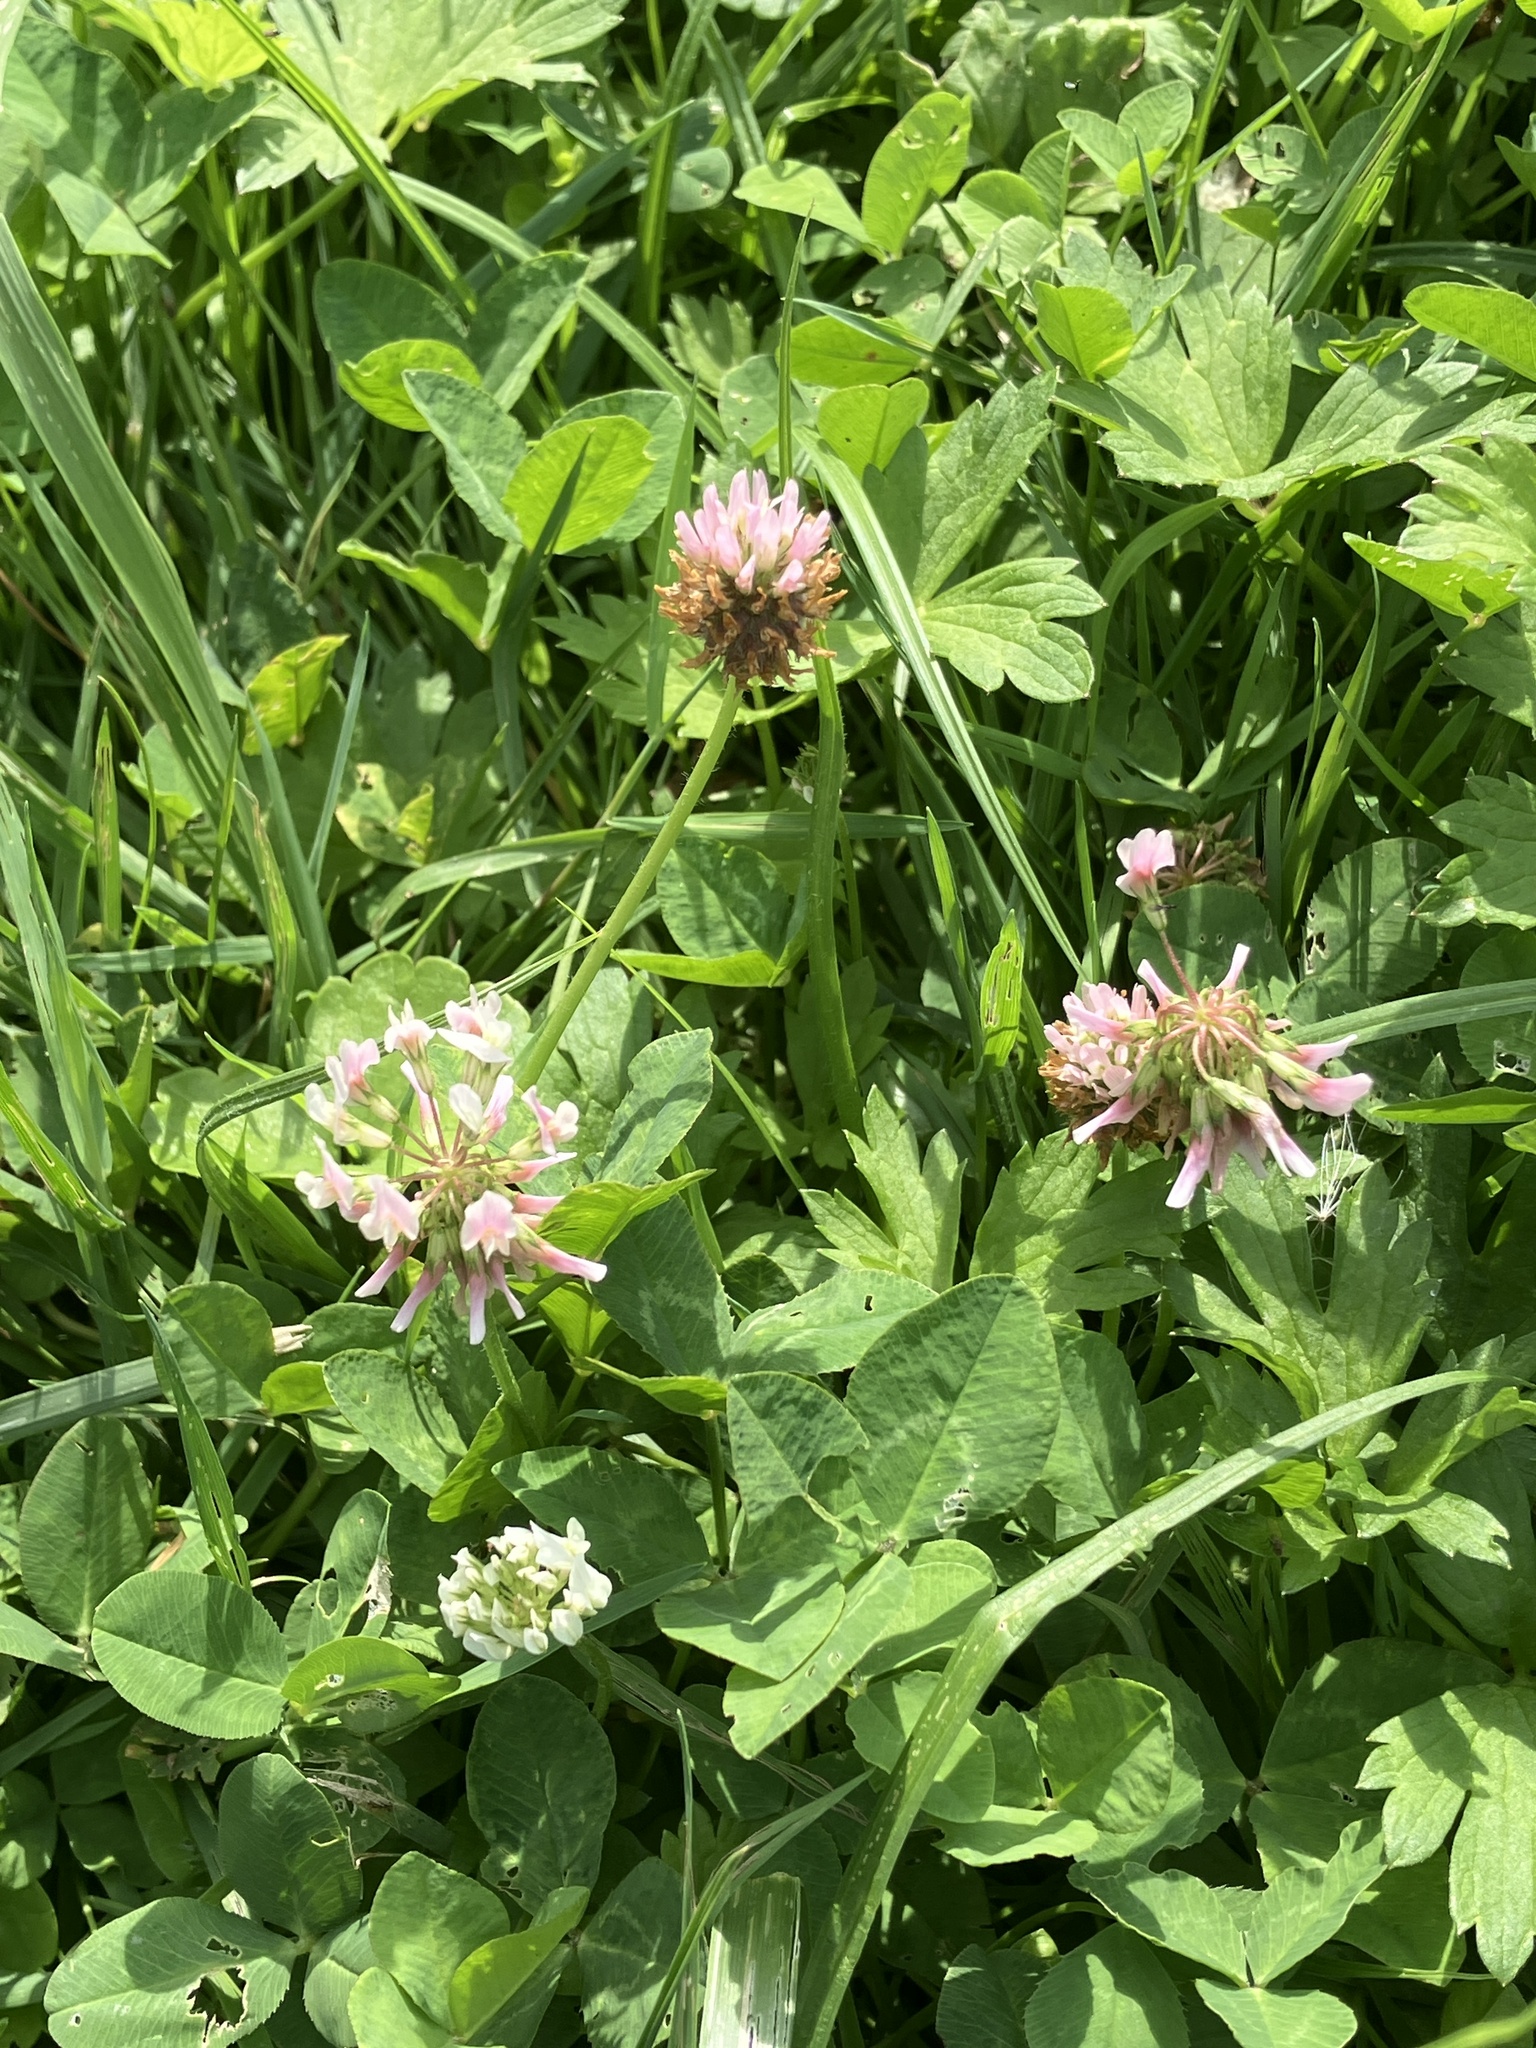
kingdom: Plantae
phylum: Tracheophyta
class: Magnoliopsida
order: Fabales
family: Fabaceae
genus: Trifolium
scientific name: Trifolium repens
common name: White clover
